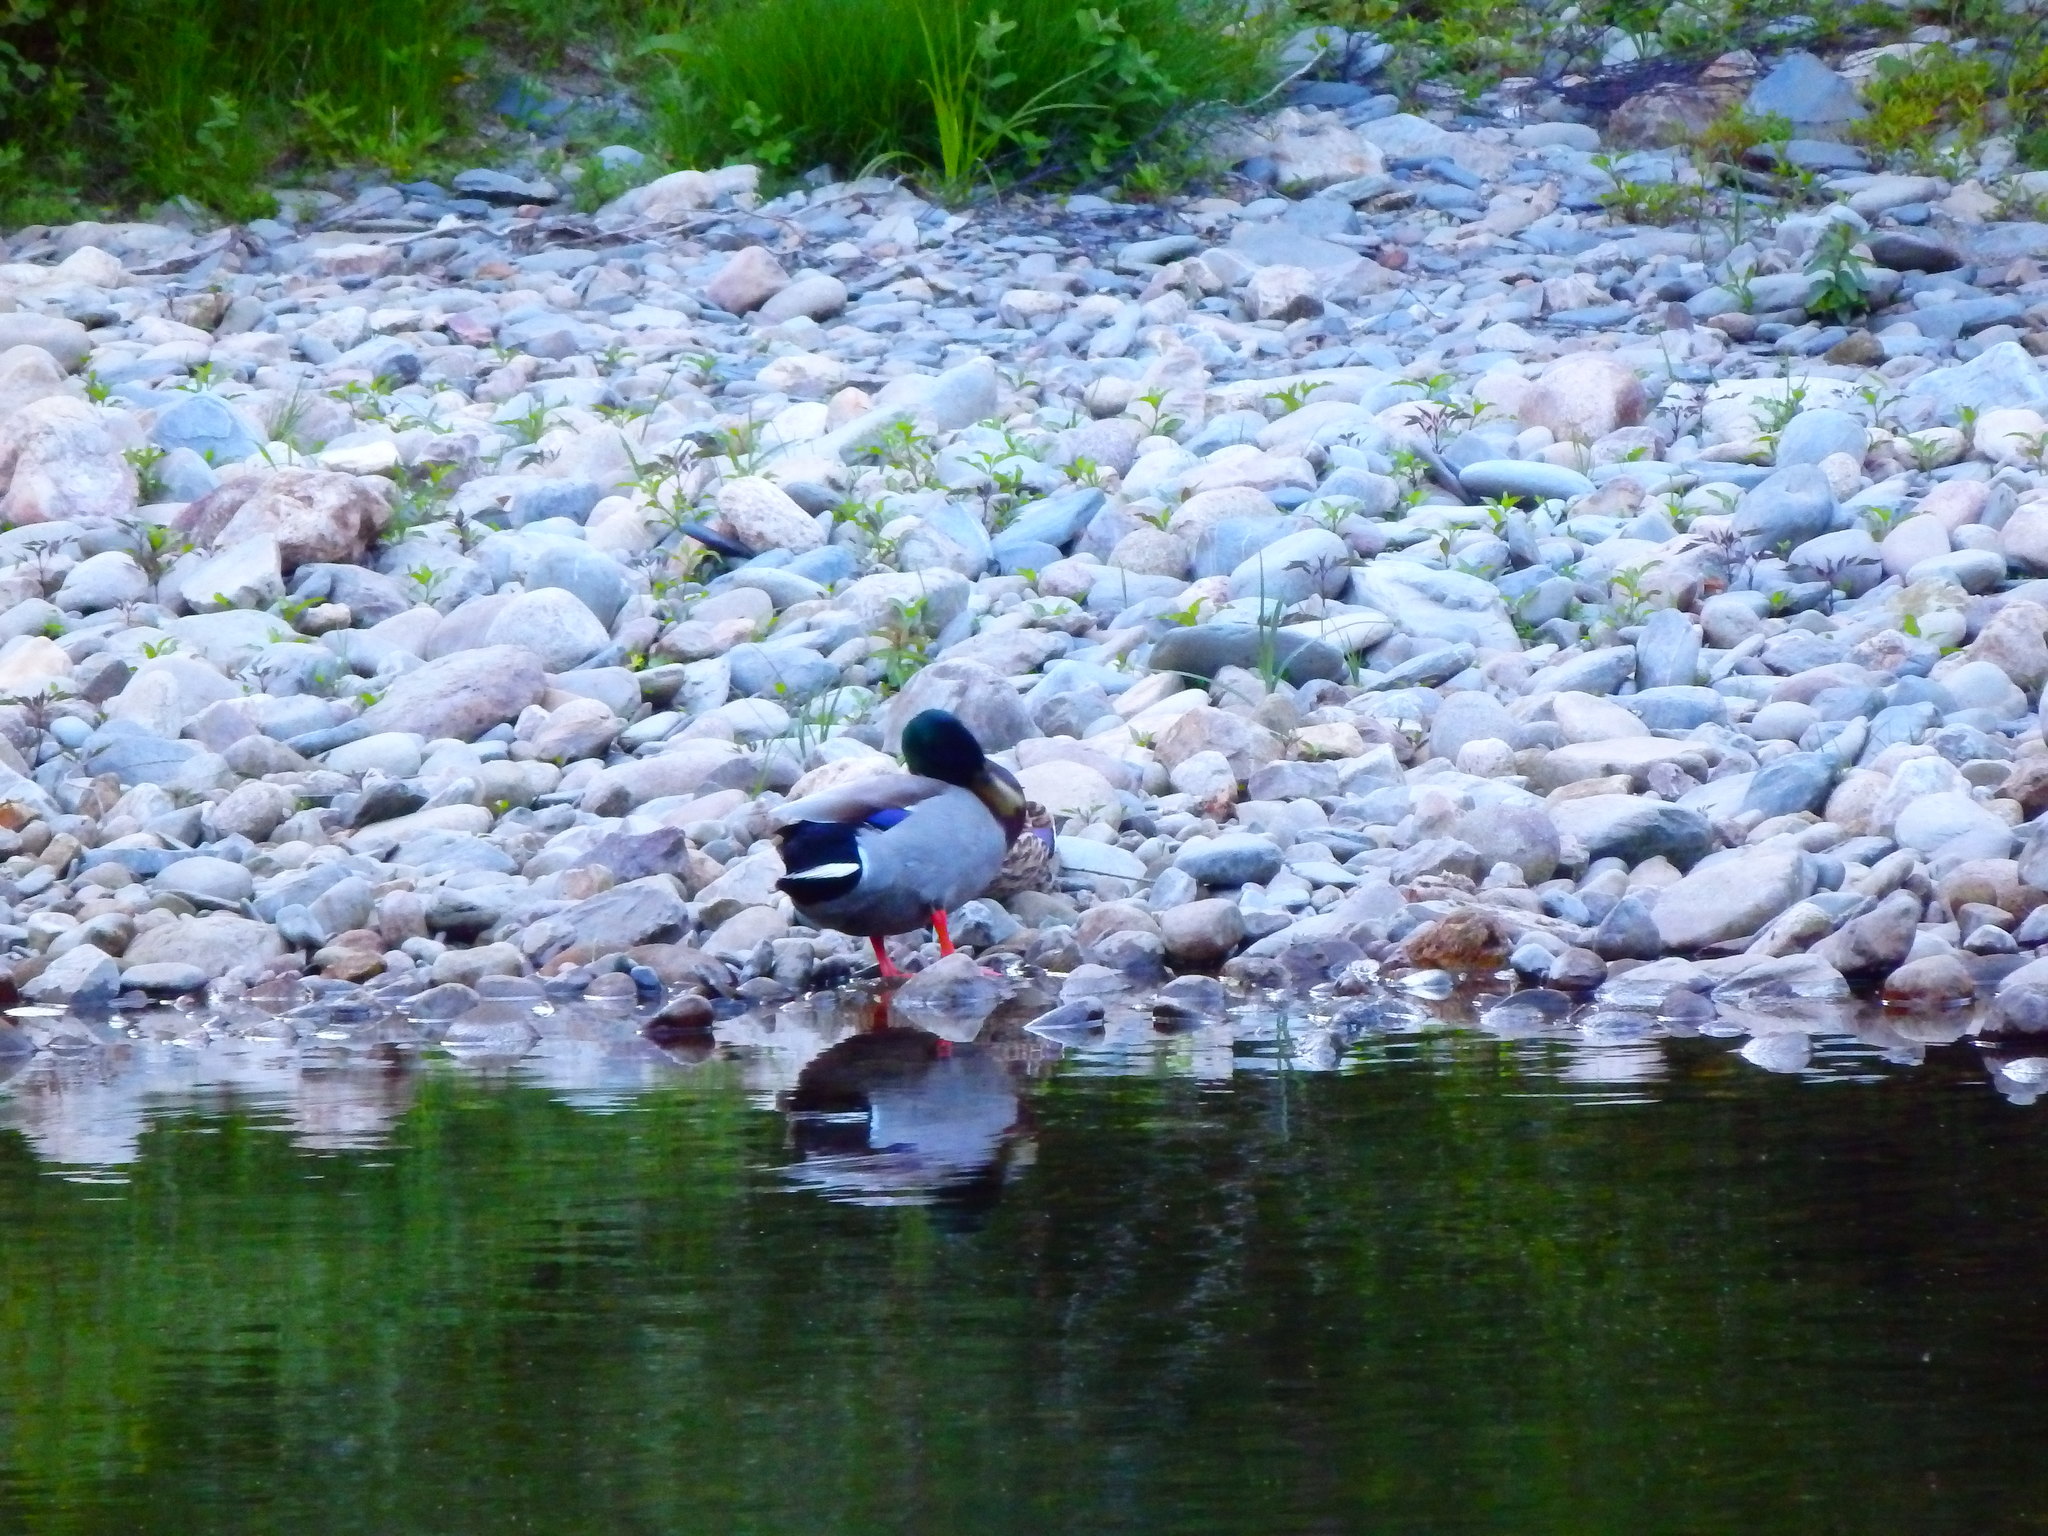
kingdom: Animalia
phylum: Chordata
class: Aves
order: Anseriformes
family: Anatidae
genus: Anas
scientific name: Anas platyrhynchos
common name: Mallard
